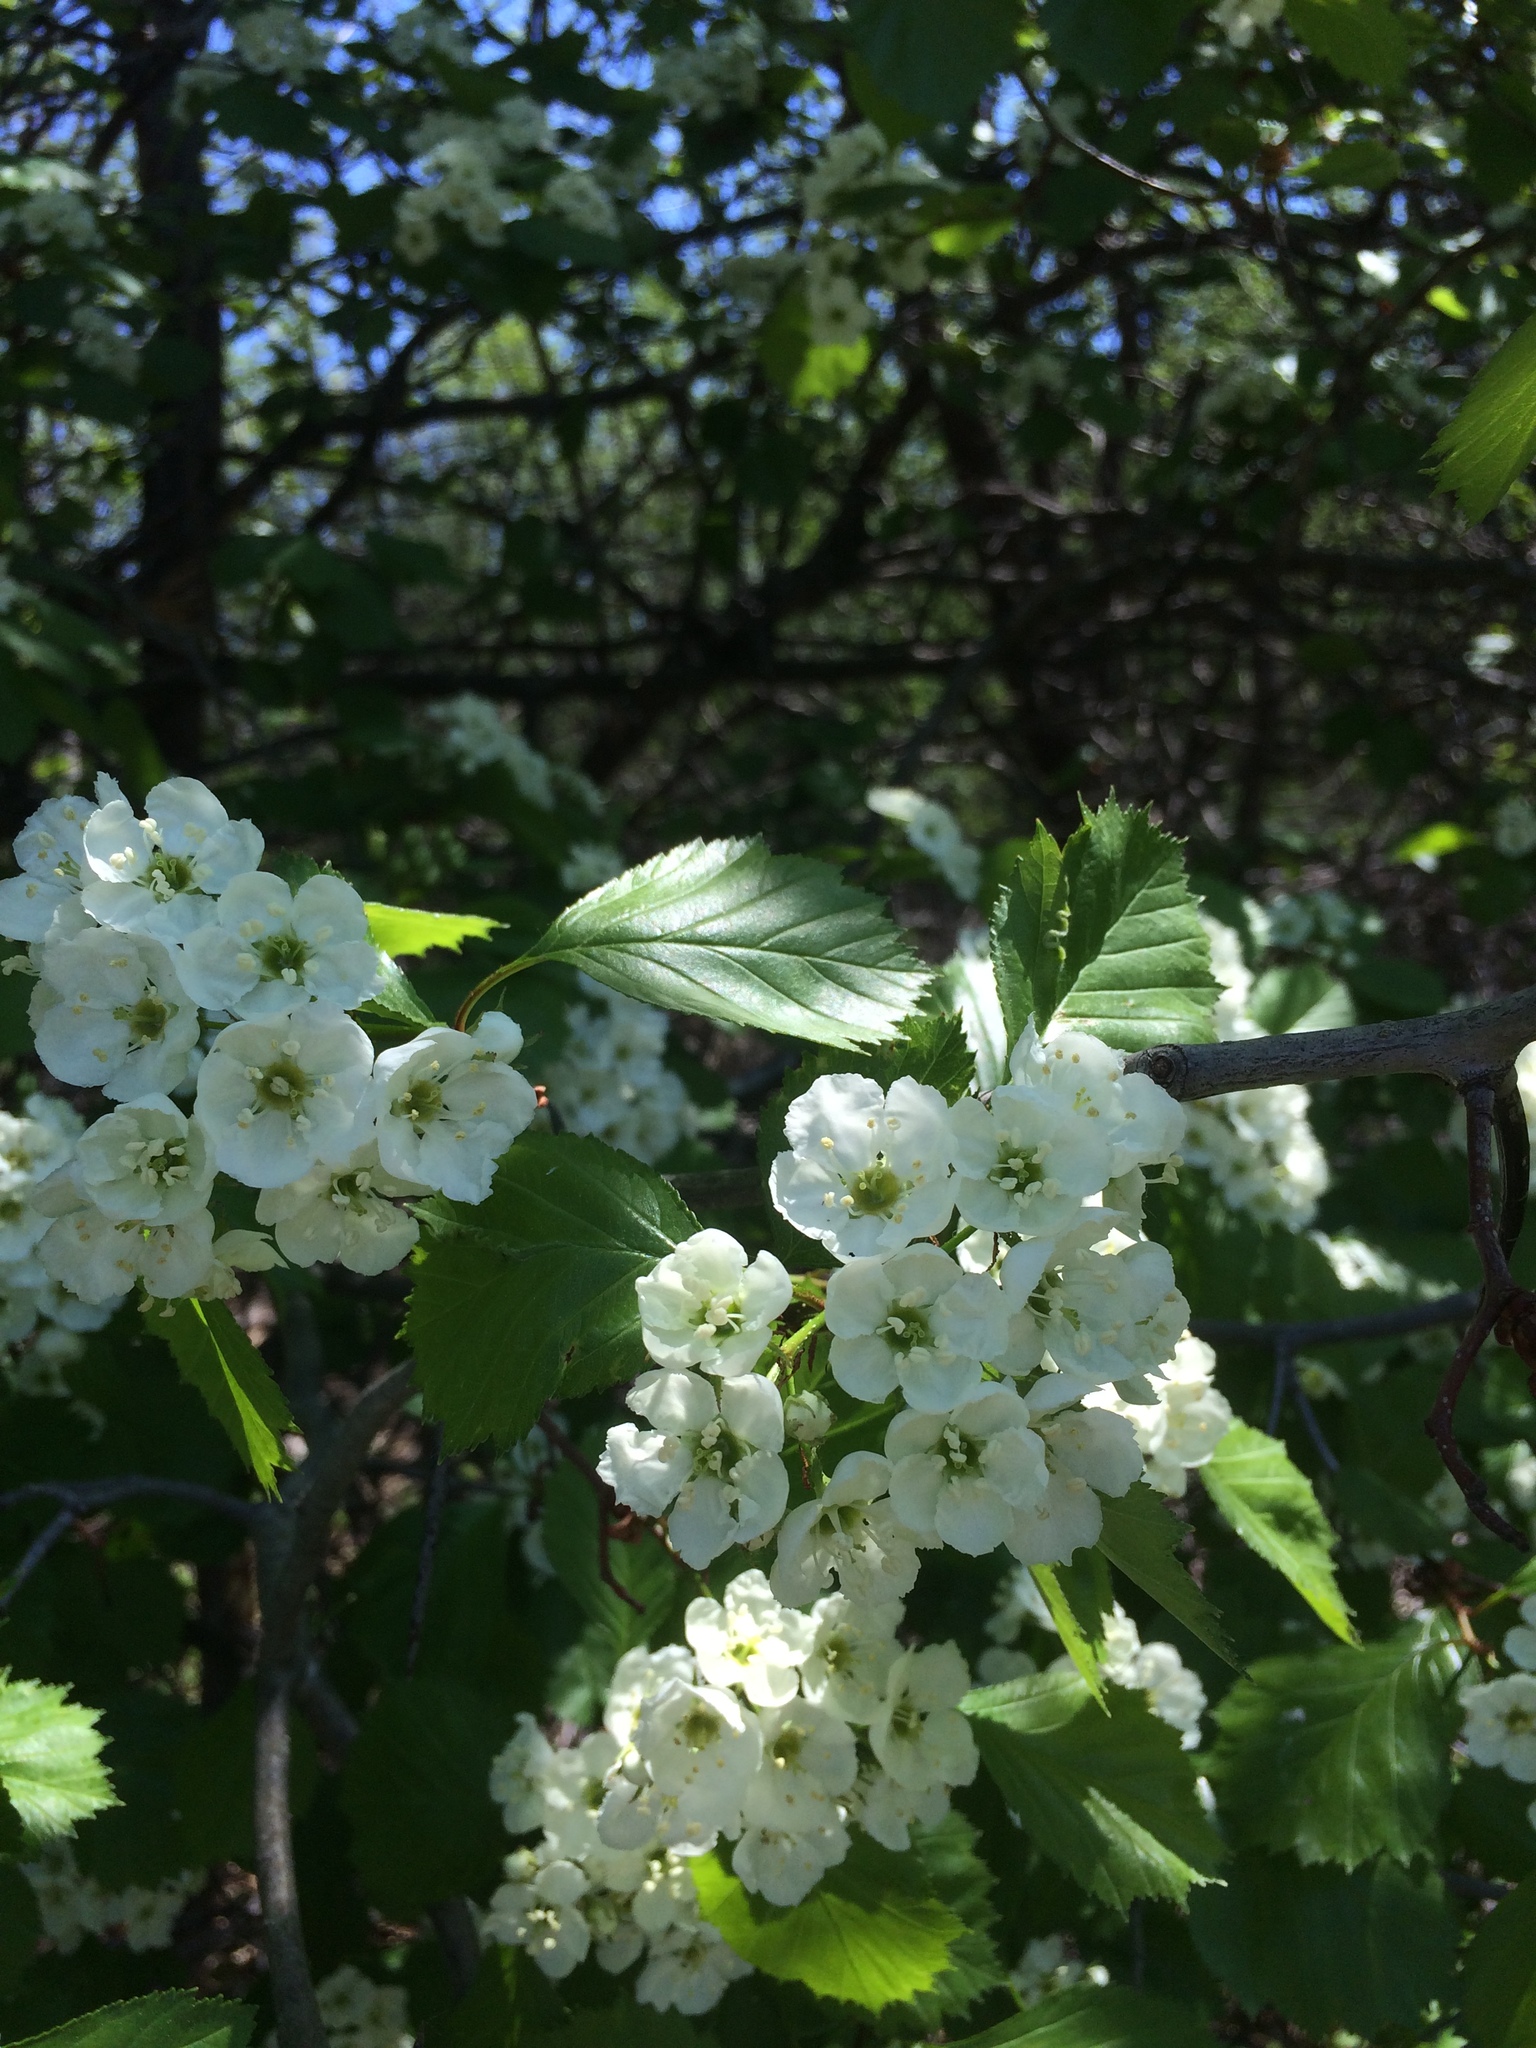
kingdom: Plantae
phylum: Tracheophyta
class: Magnoliopsida
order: Rosales
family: Rosaceae
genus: Crataegus
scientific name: Crataegus chrysocarpa
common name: Fire-berry hawthorn
